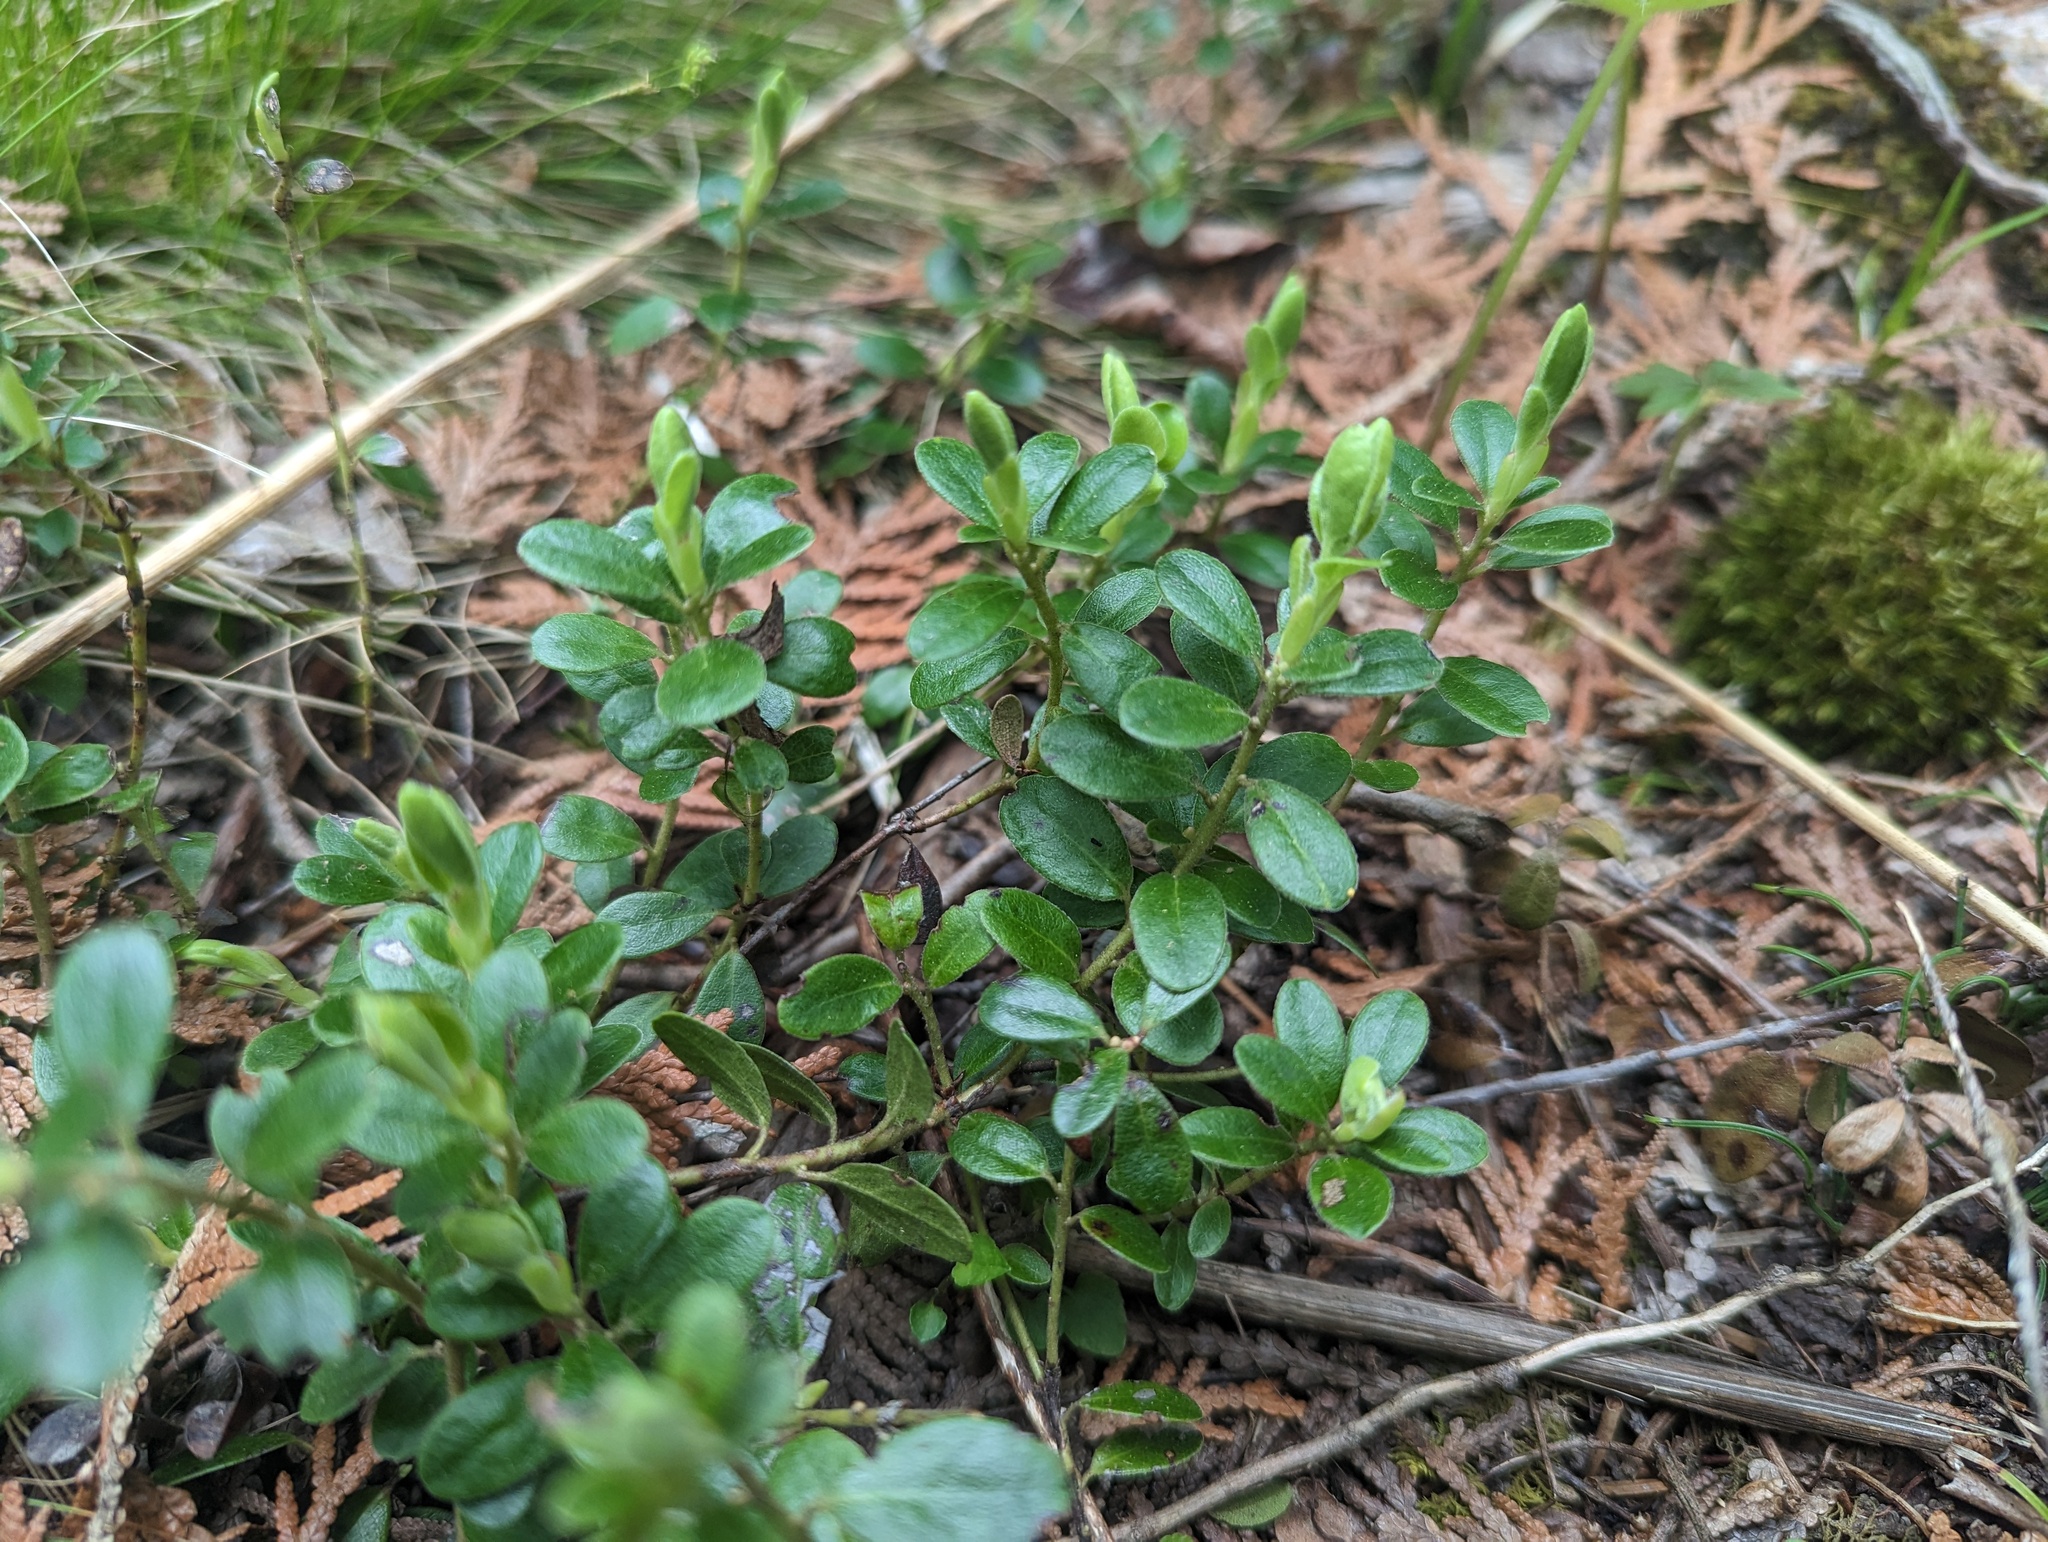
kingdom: Plantae
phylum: Tracheophyta
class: Magnoliopsida
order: Ericales
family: Ericaceae
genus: Arctostaphylos
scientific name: Arctostaphylos uva-ursi
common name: Bearberry
